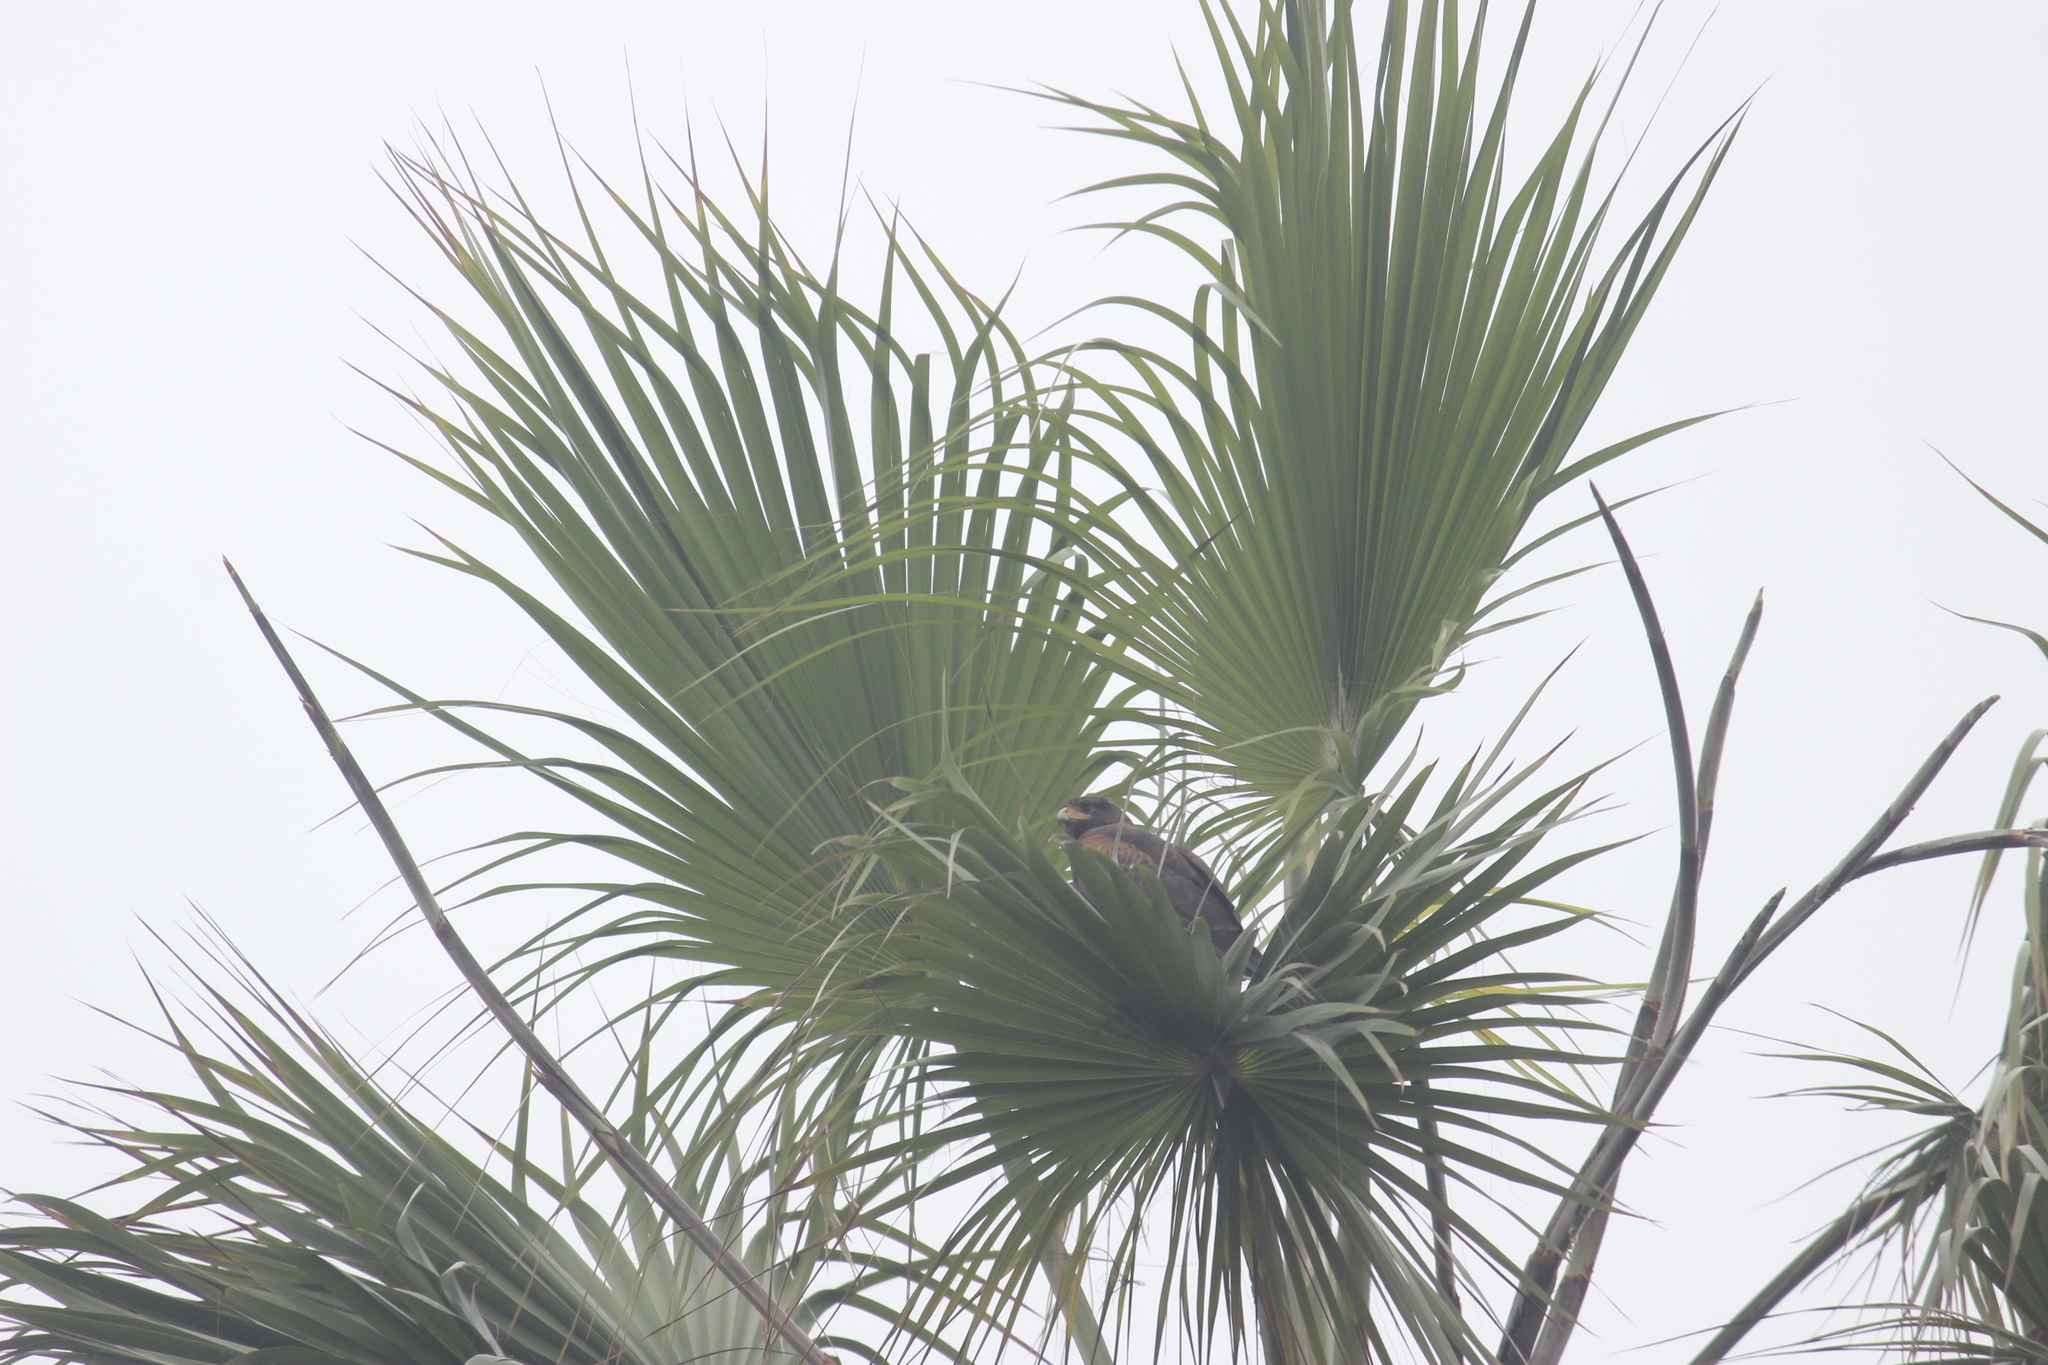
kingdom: Animalia
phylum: Chordata
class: Aves
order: Accipitriformes
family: Accipitridae
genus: Parabuteo
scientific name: Parabuteo unicinctus
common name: Harris's hawk
